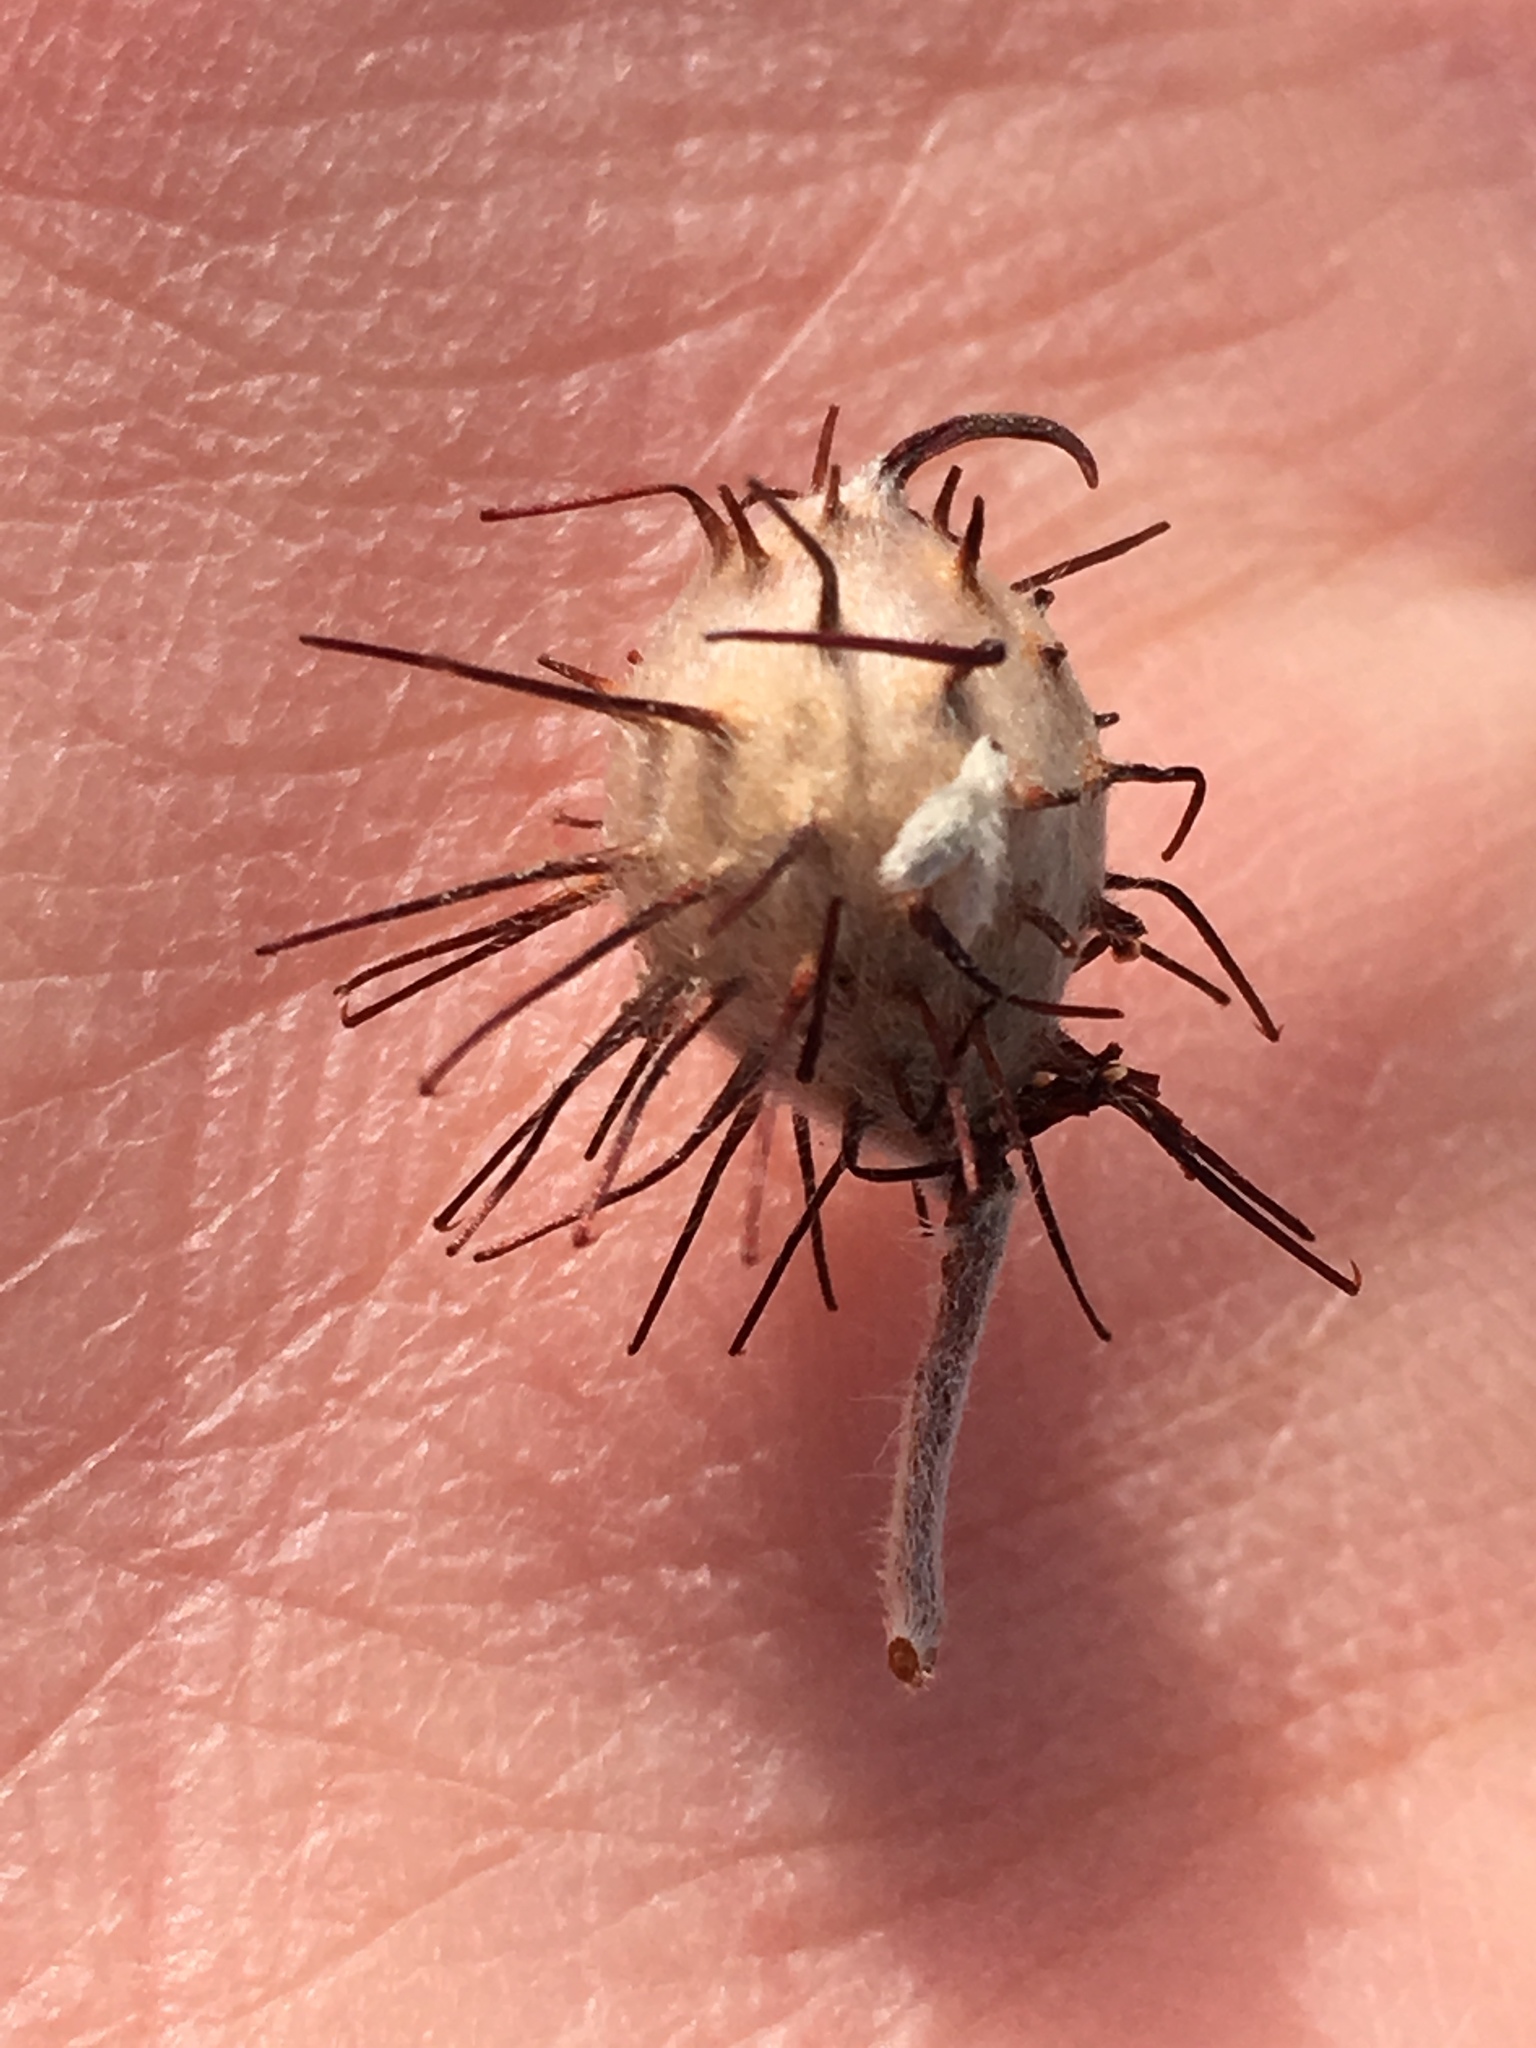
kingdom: Plantae
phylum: Tracheophyta
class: Magnoliopsida
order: Zygophyllales
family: Krameriaceae
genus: Krameria
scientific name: Krameria bicolor
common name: White ratany
